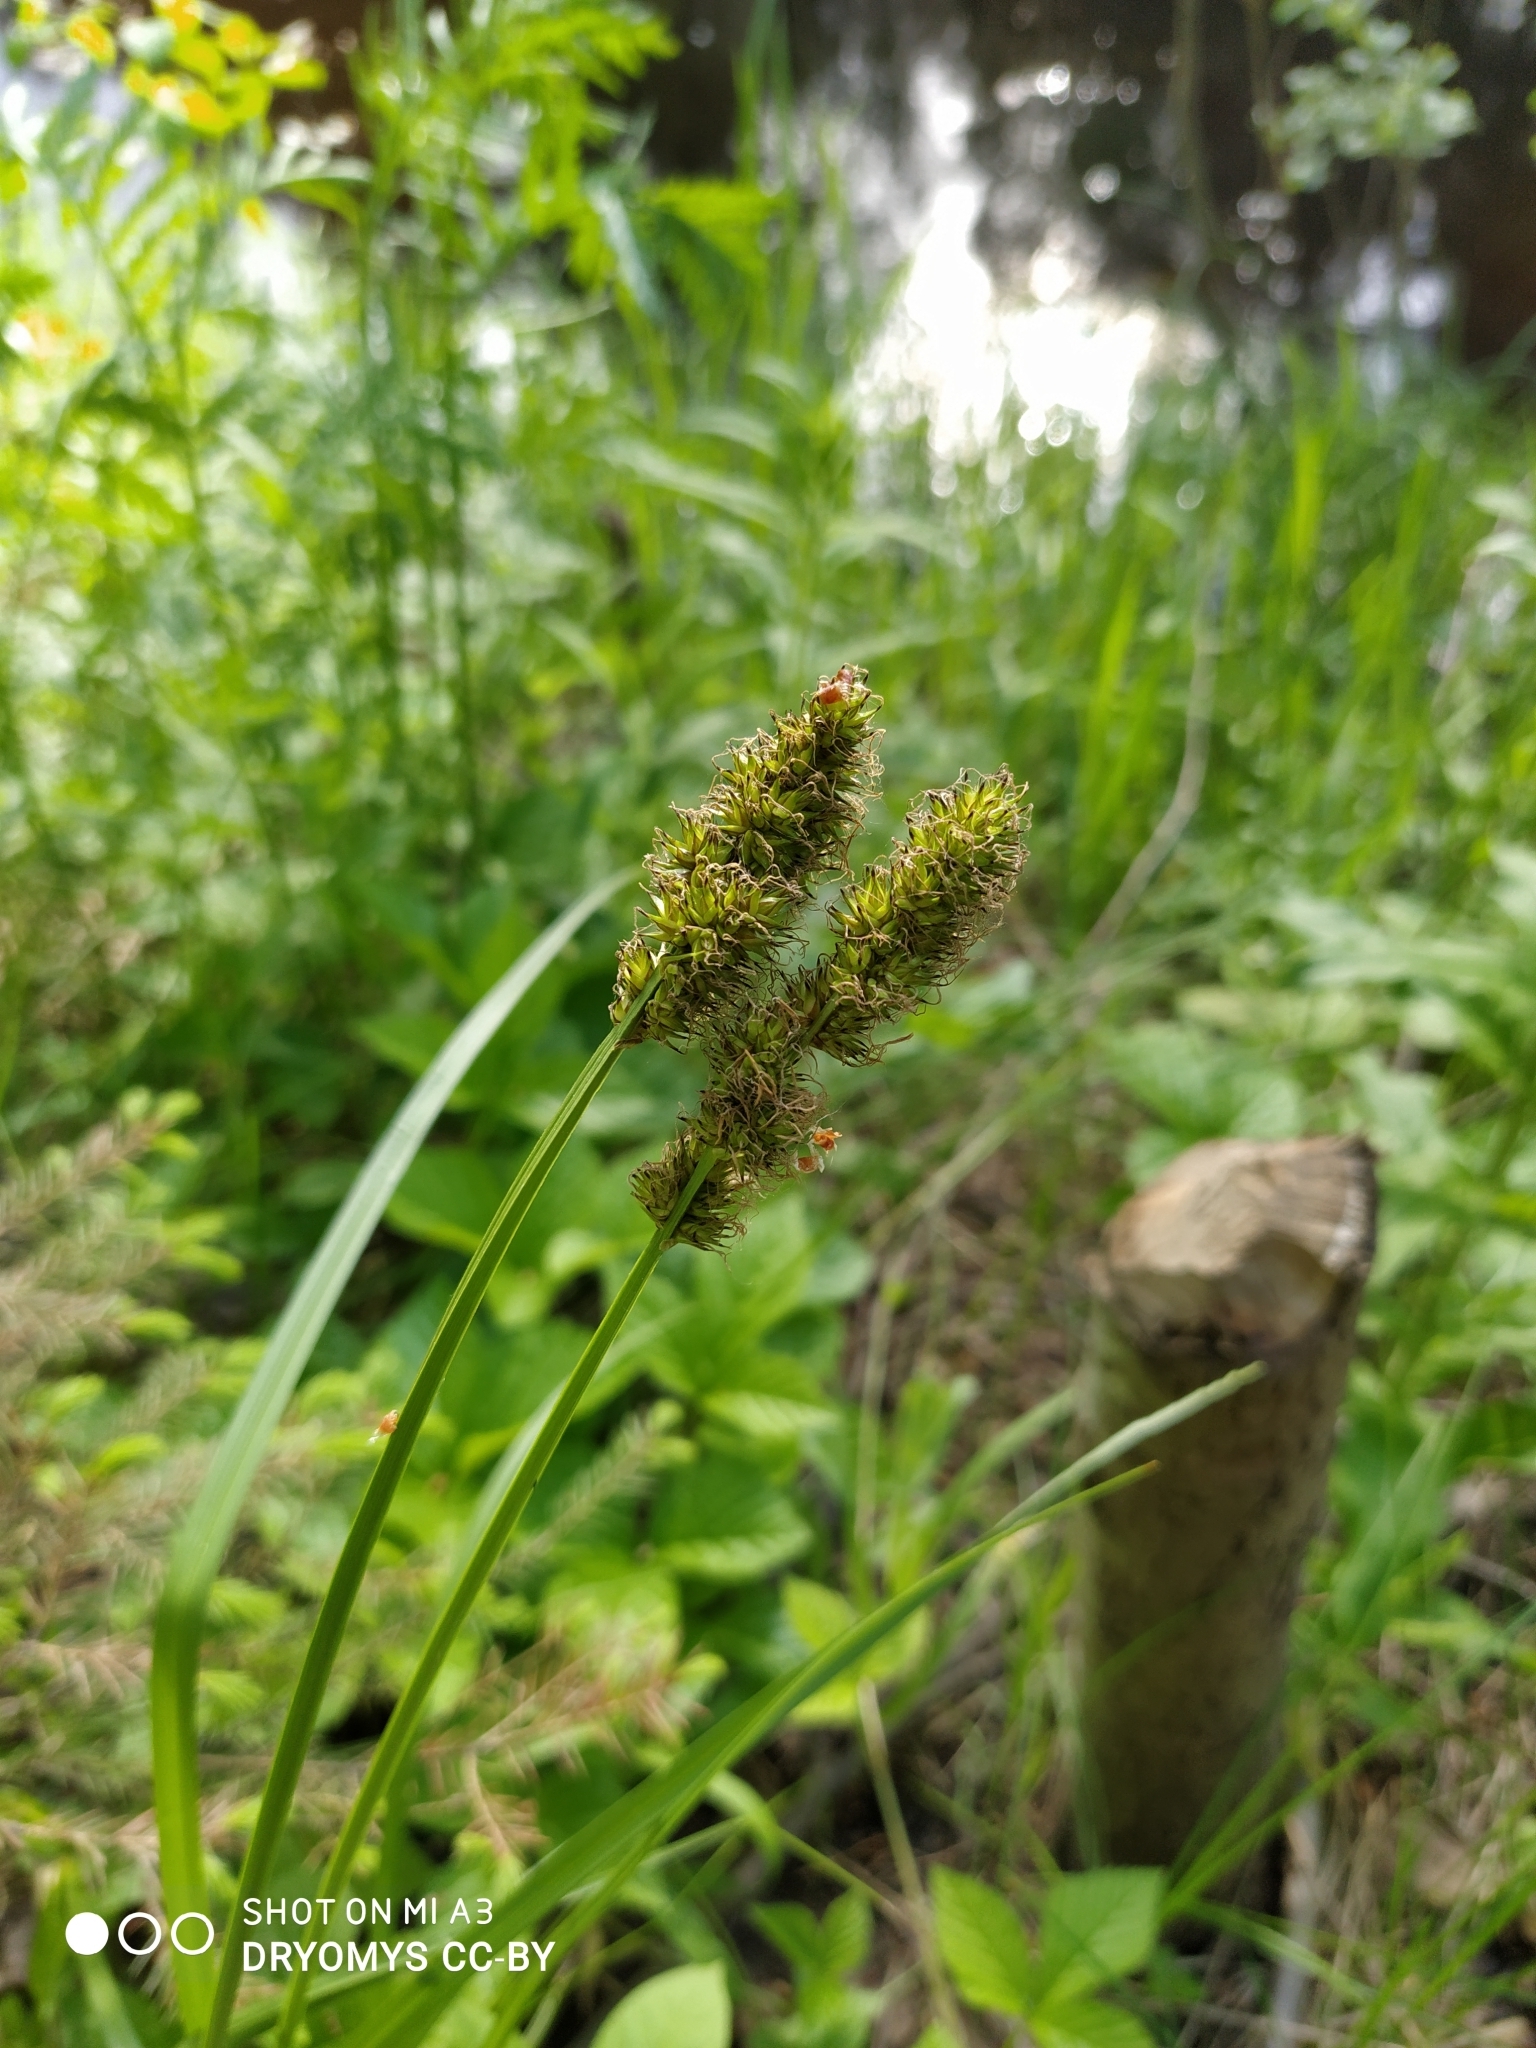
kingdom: Plantae
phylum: Tracheophyta
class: Liliopsida
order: Poales
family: Cyperaceae
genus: Carex
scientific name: Carex vulpina
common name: True fox-sedge
